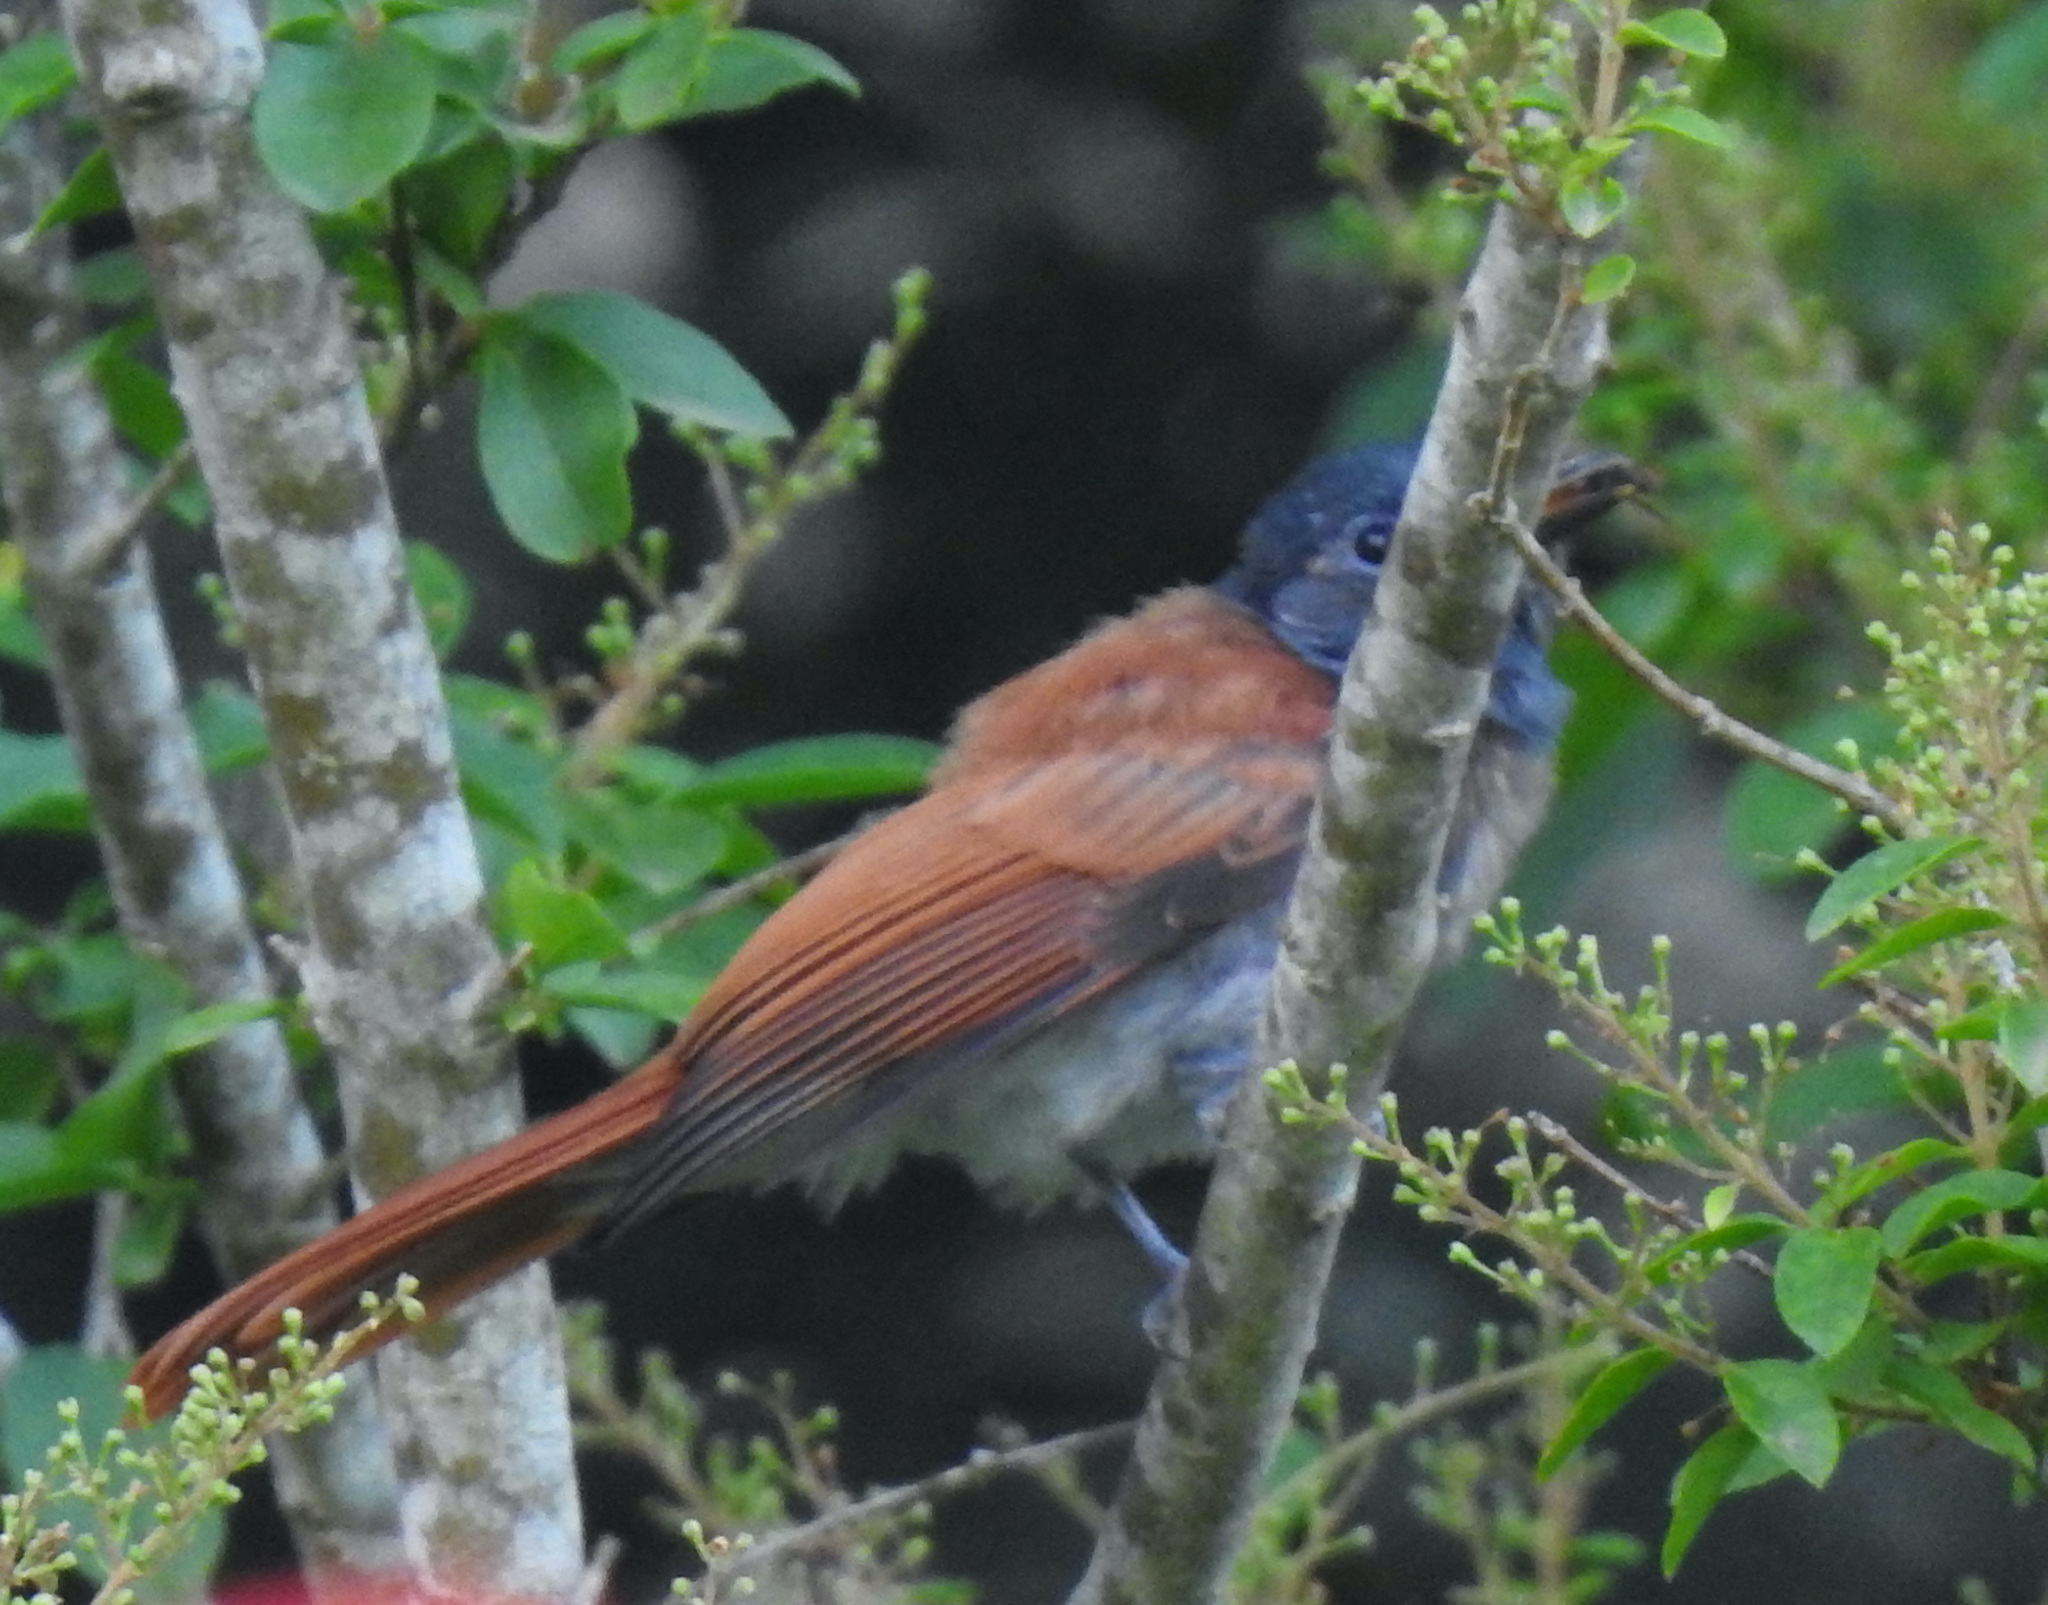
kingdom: Animalia
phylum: Chordata
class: Aves
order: Passeriformes
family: Monarchidae
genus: Terpsiphone
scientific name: Terpsiphone viridis
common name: African paradise flycatcher
